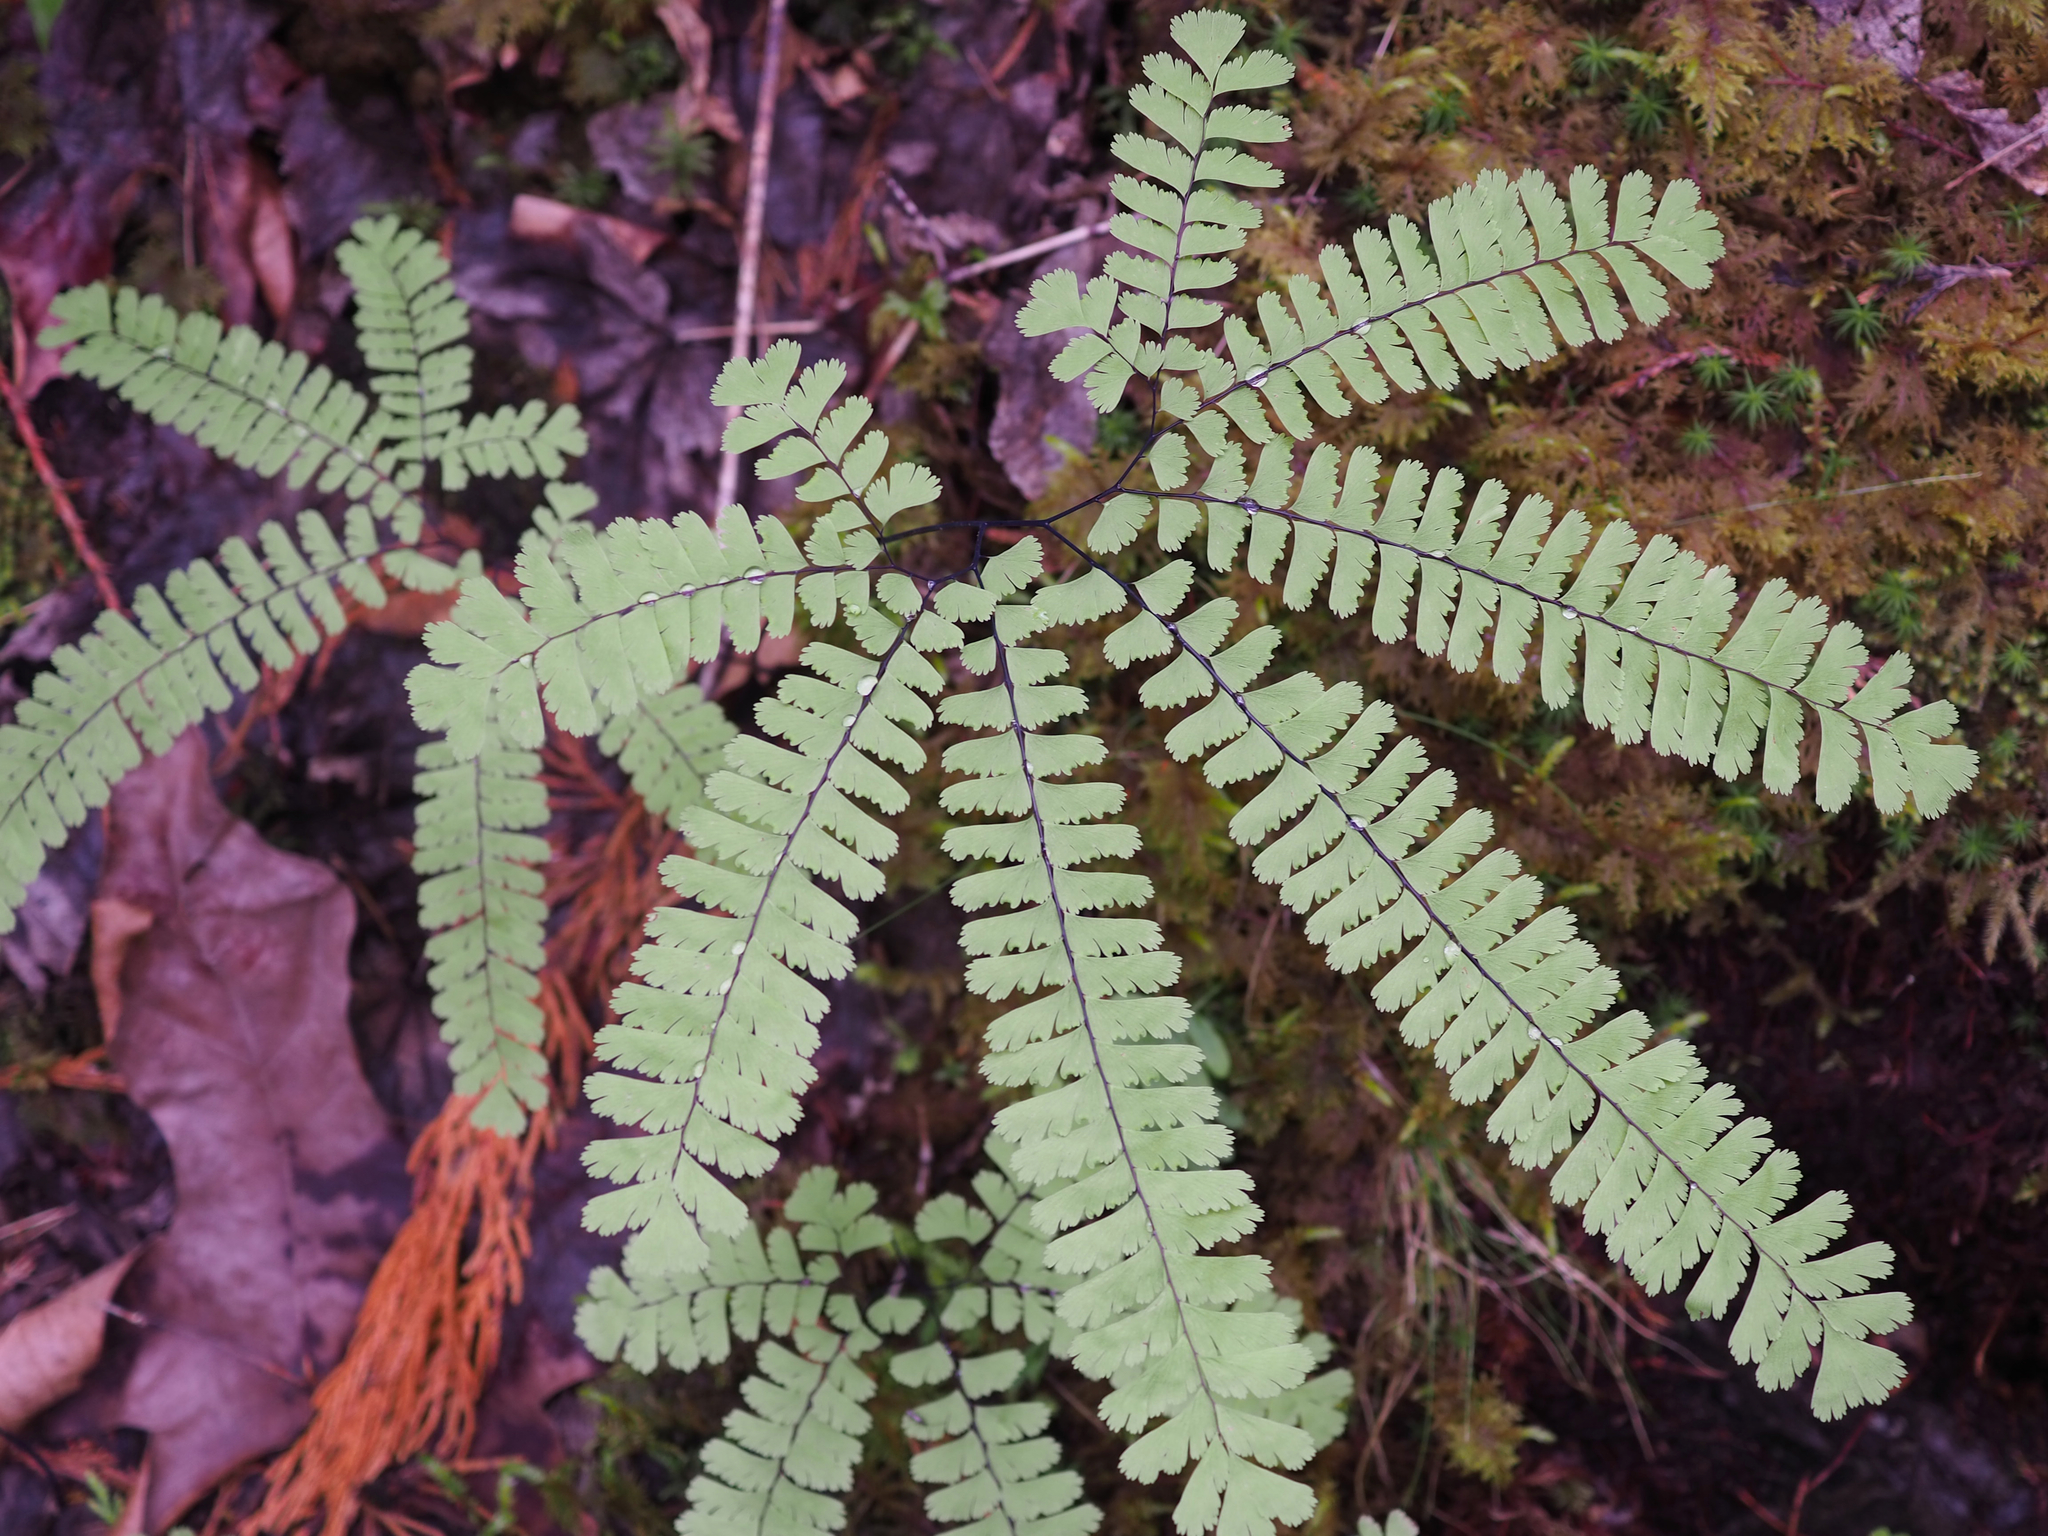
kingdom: Plantae
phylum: Tracheophyta
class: Polypodiopsida
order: Polypodiales
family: Pteridaceae
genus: Adiantum
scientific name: Adiantum aleuticum
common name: Aleutian maidenhair fern
